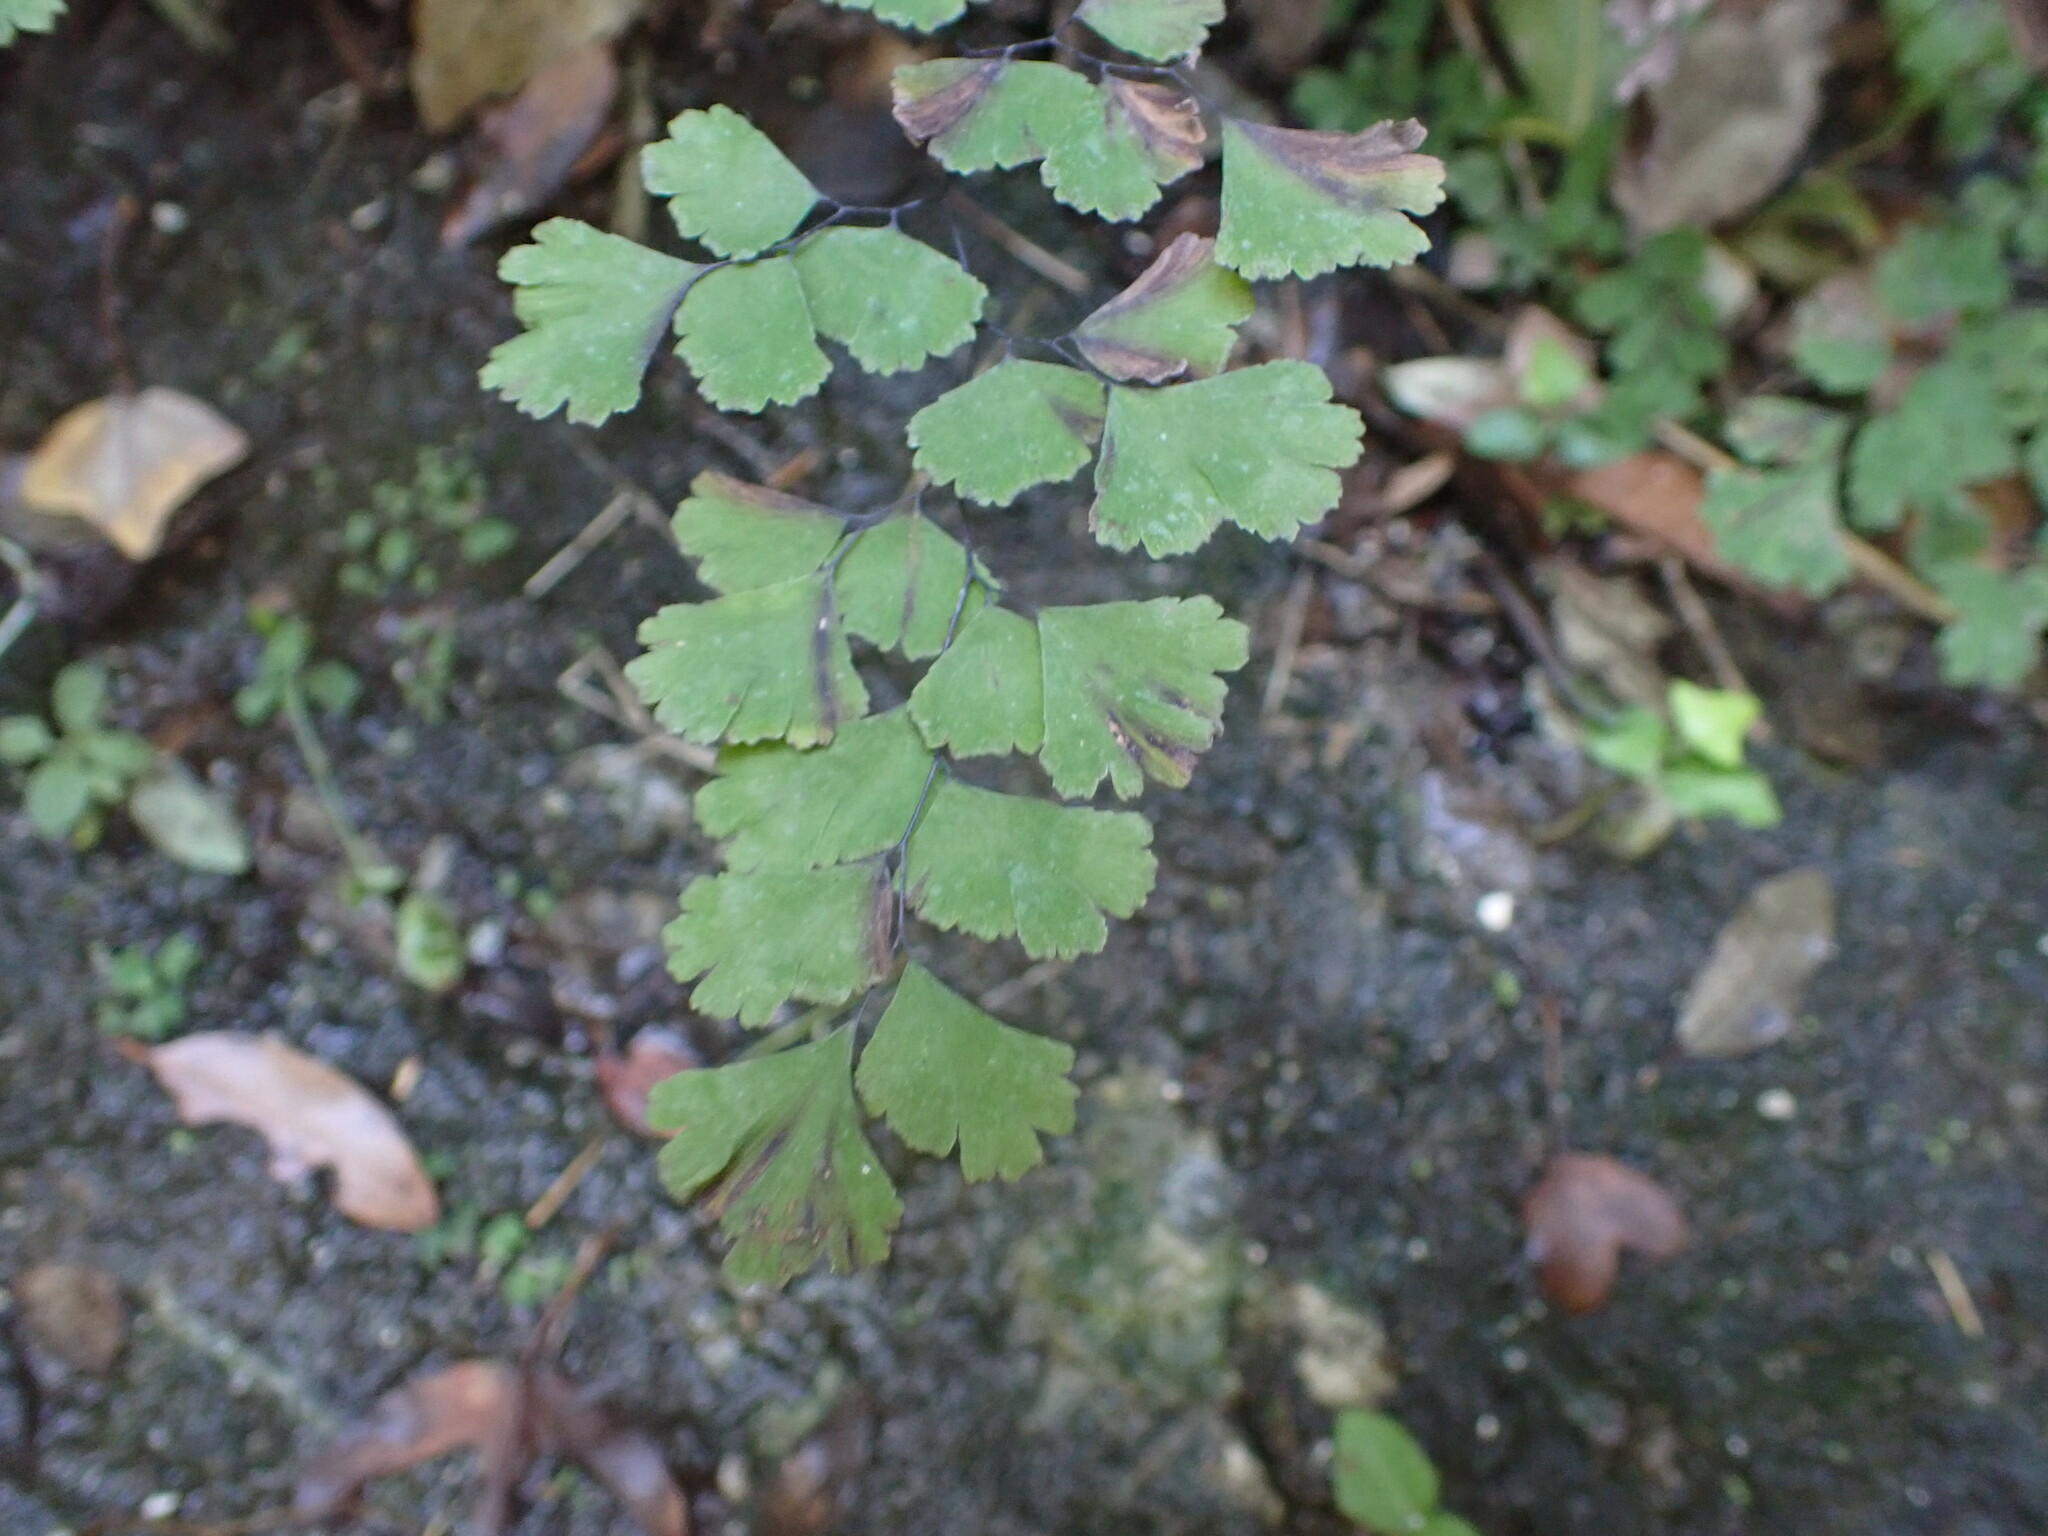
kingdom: Plantae
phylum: Tracheophyta
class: Polypodiopsida
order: Polypodiales
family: Pteridaceae
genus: Adiantum
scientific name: Adiantum capillus-veneris
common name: Maidenhair fern
